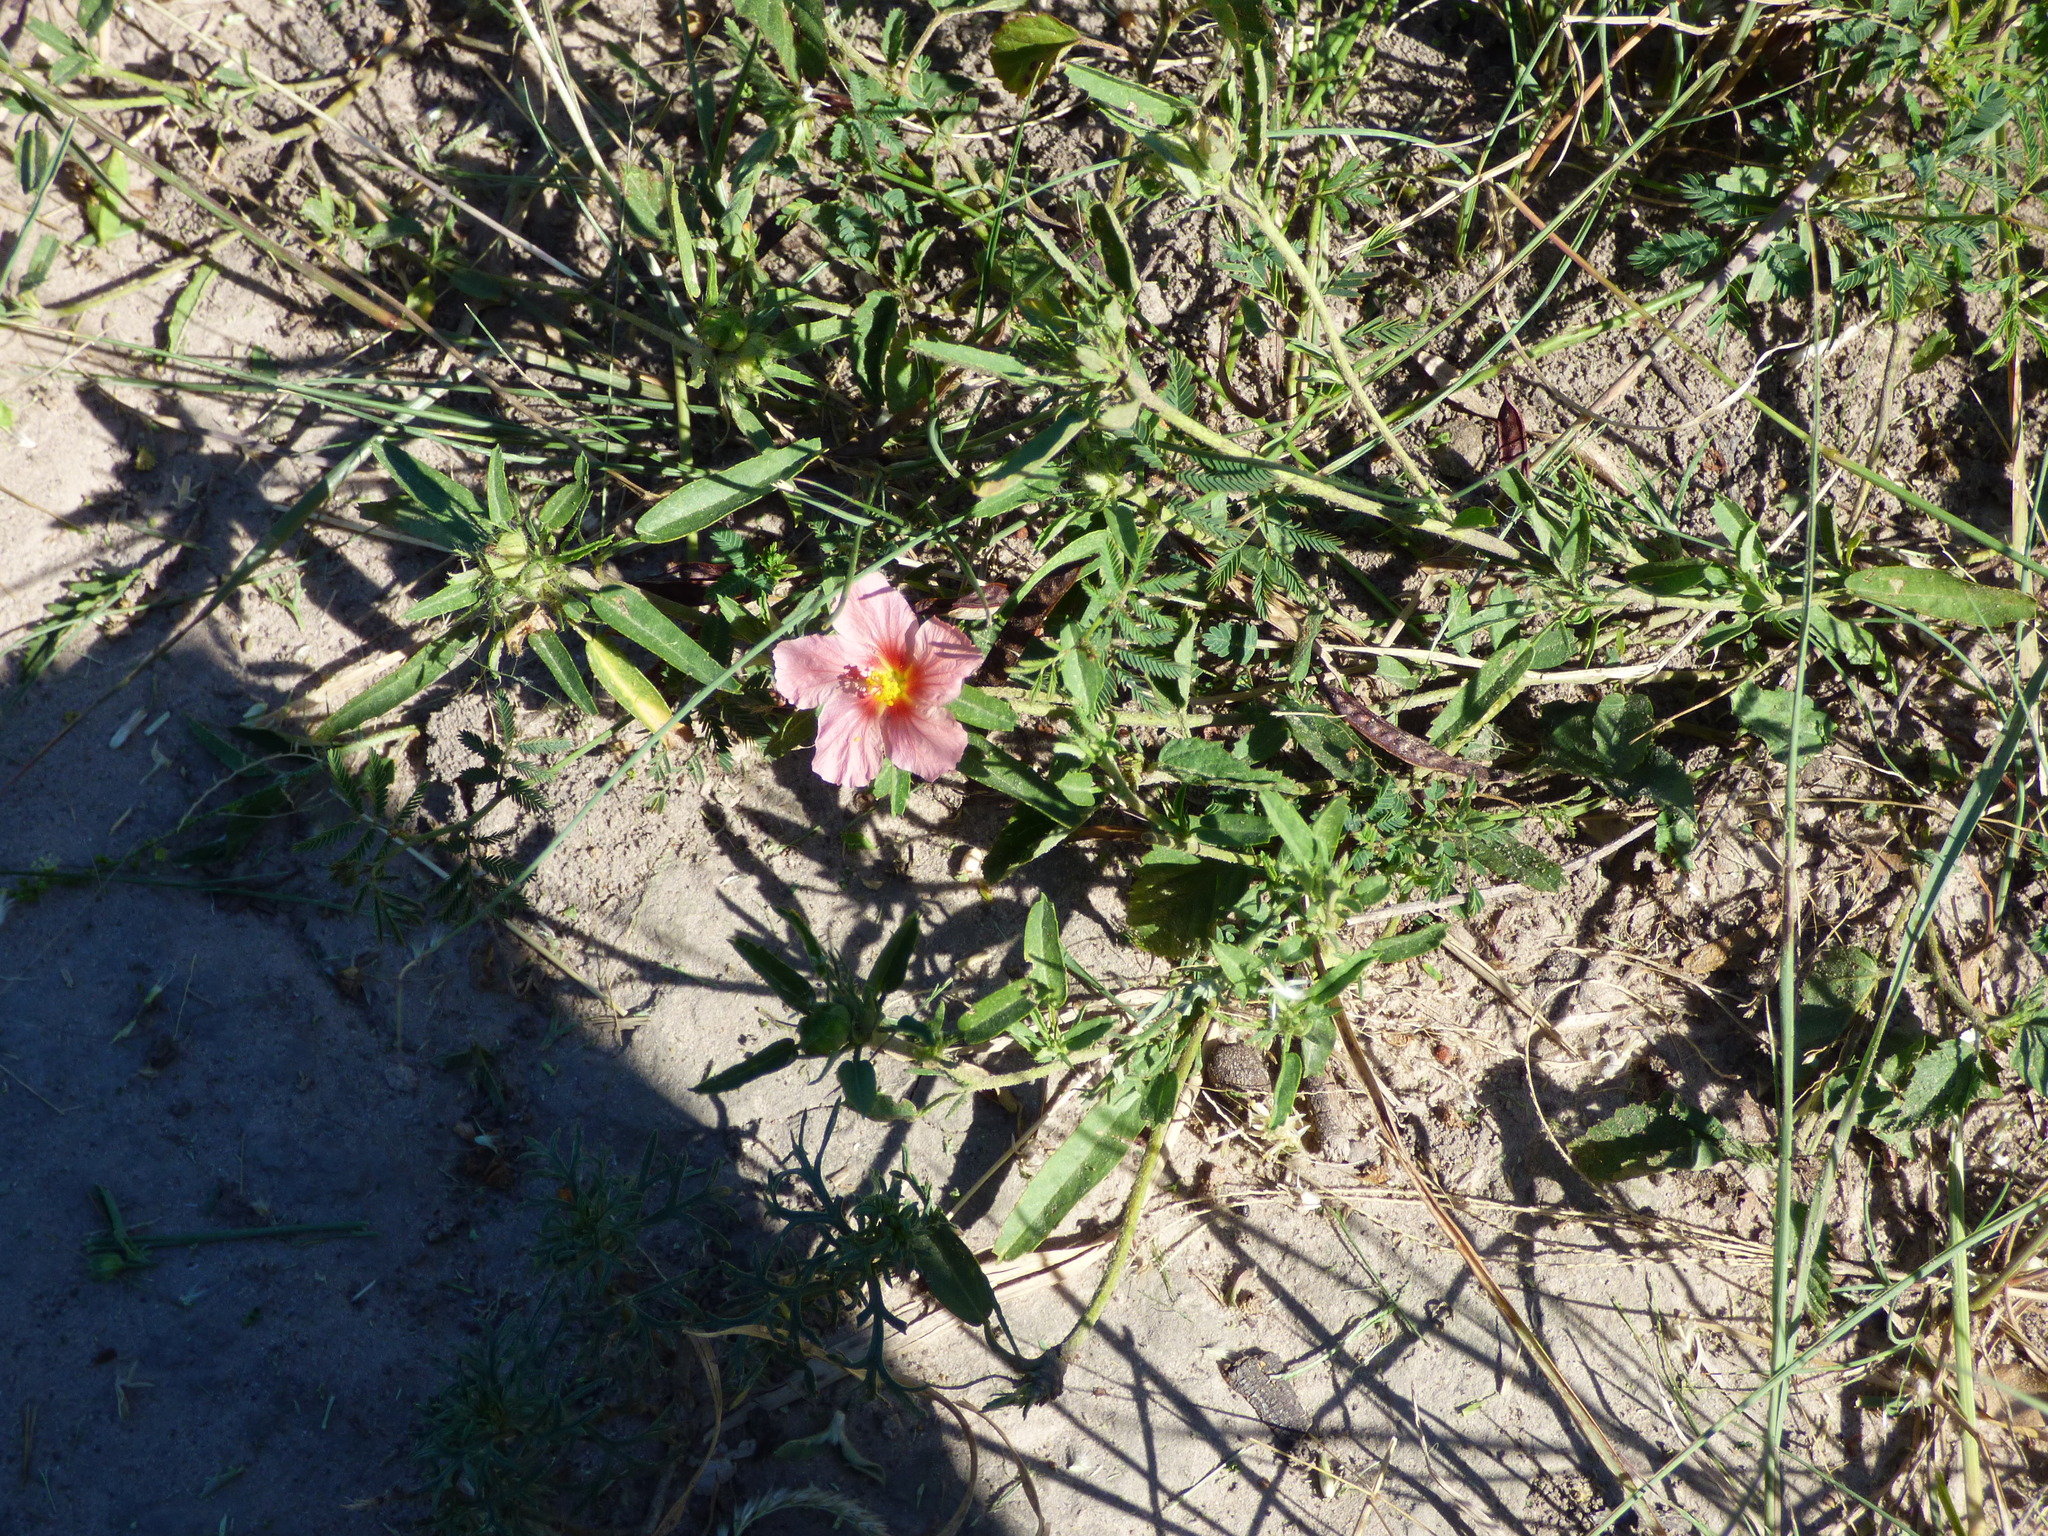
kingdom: Plantae
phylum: Tracheophyta
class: Magnoliopsida
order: Malvales
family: Malvaceae
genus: Sida
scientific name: Sida anomala
